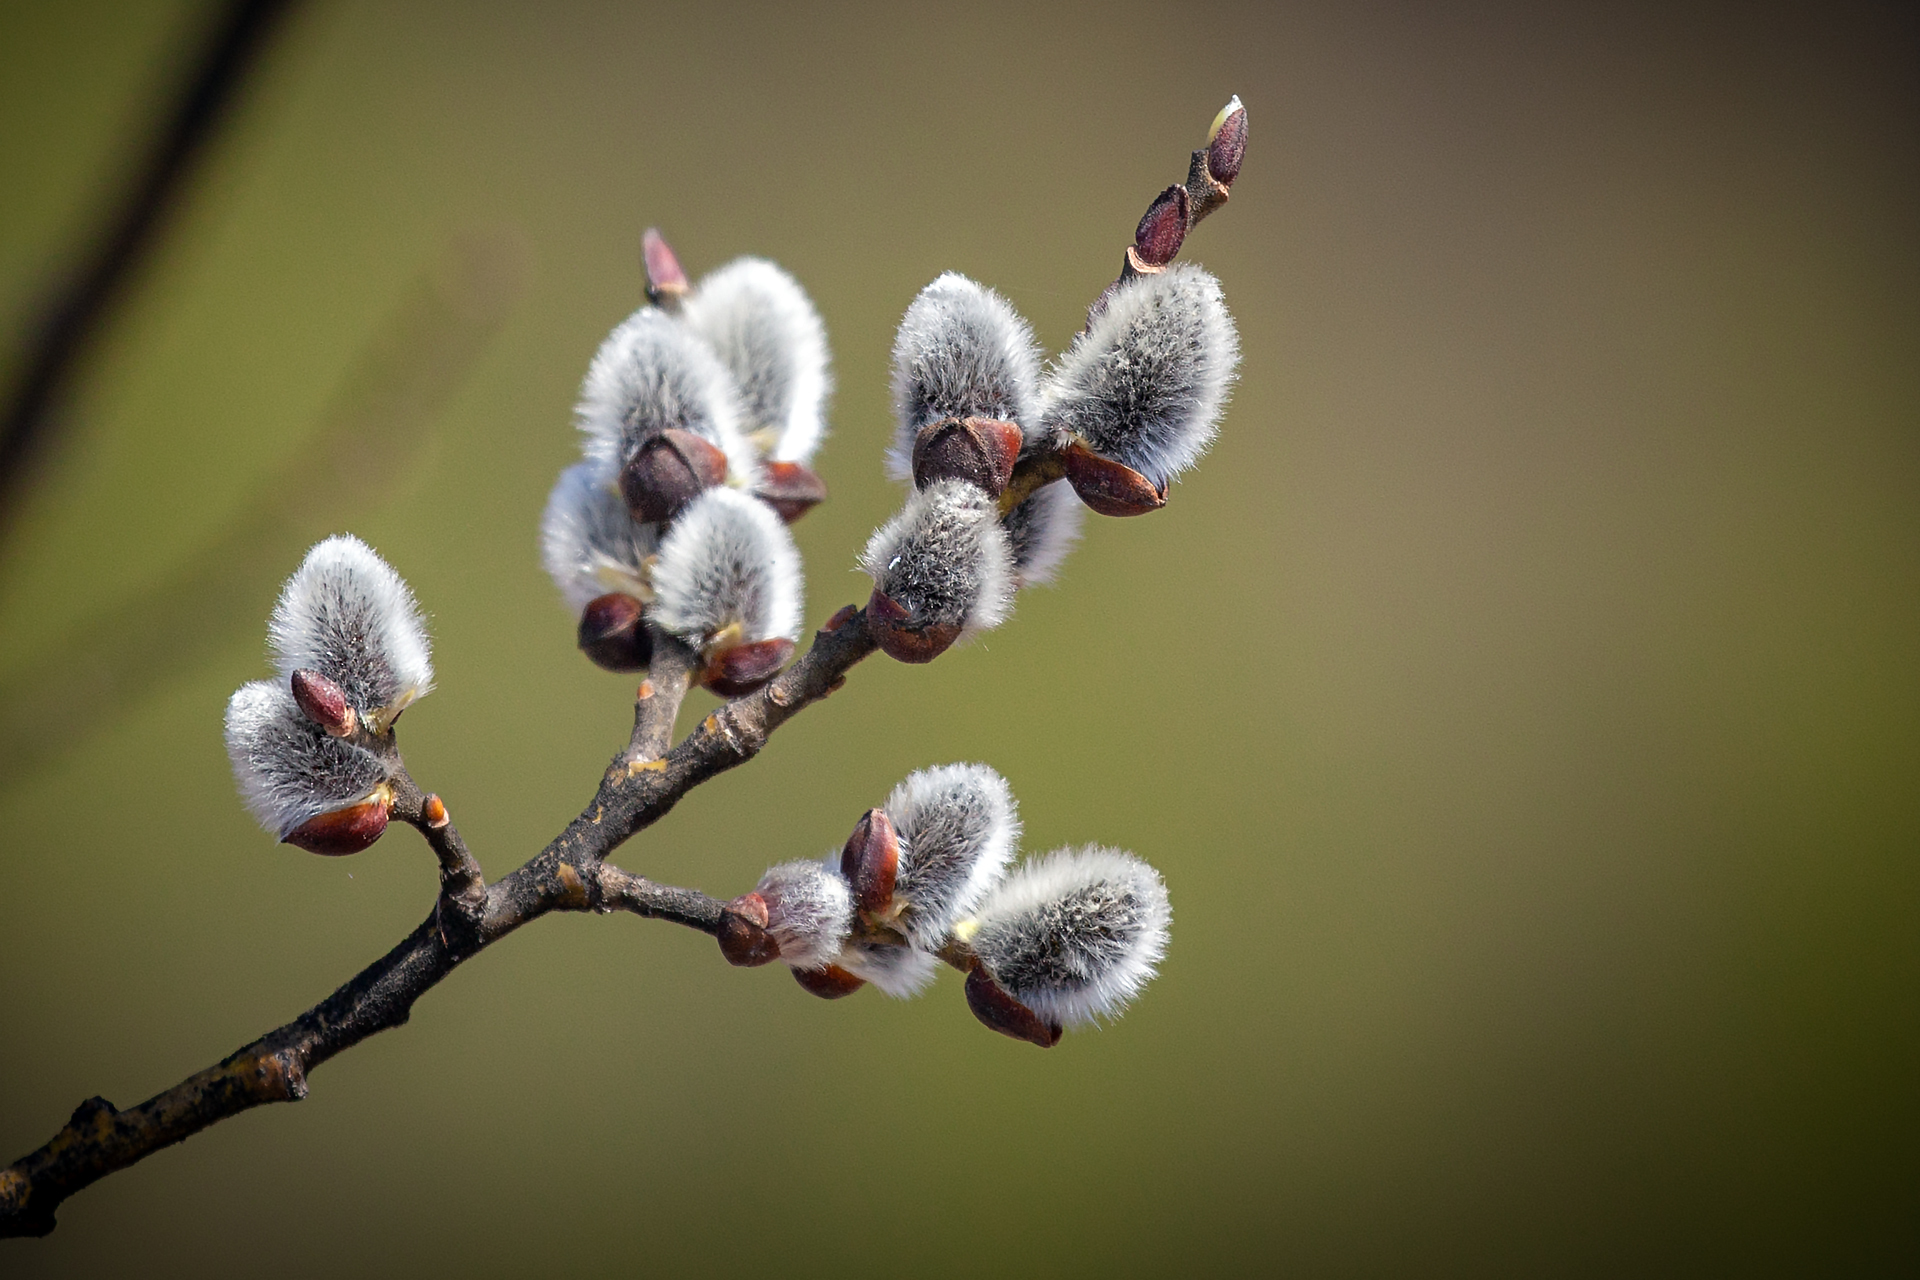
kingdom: Plantae
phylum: Tracheophyta
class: Magnoliopsida
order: Malpighiales
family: Salicaceae
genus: Salix
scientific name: Salix caprea
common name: Goat willow
